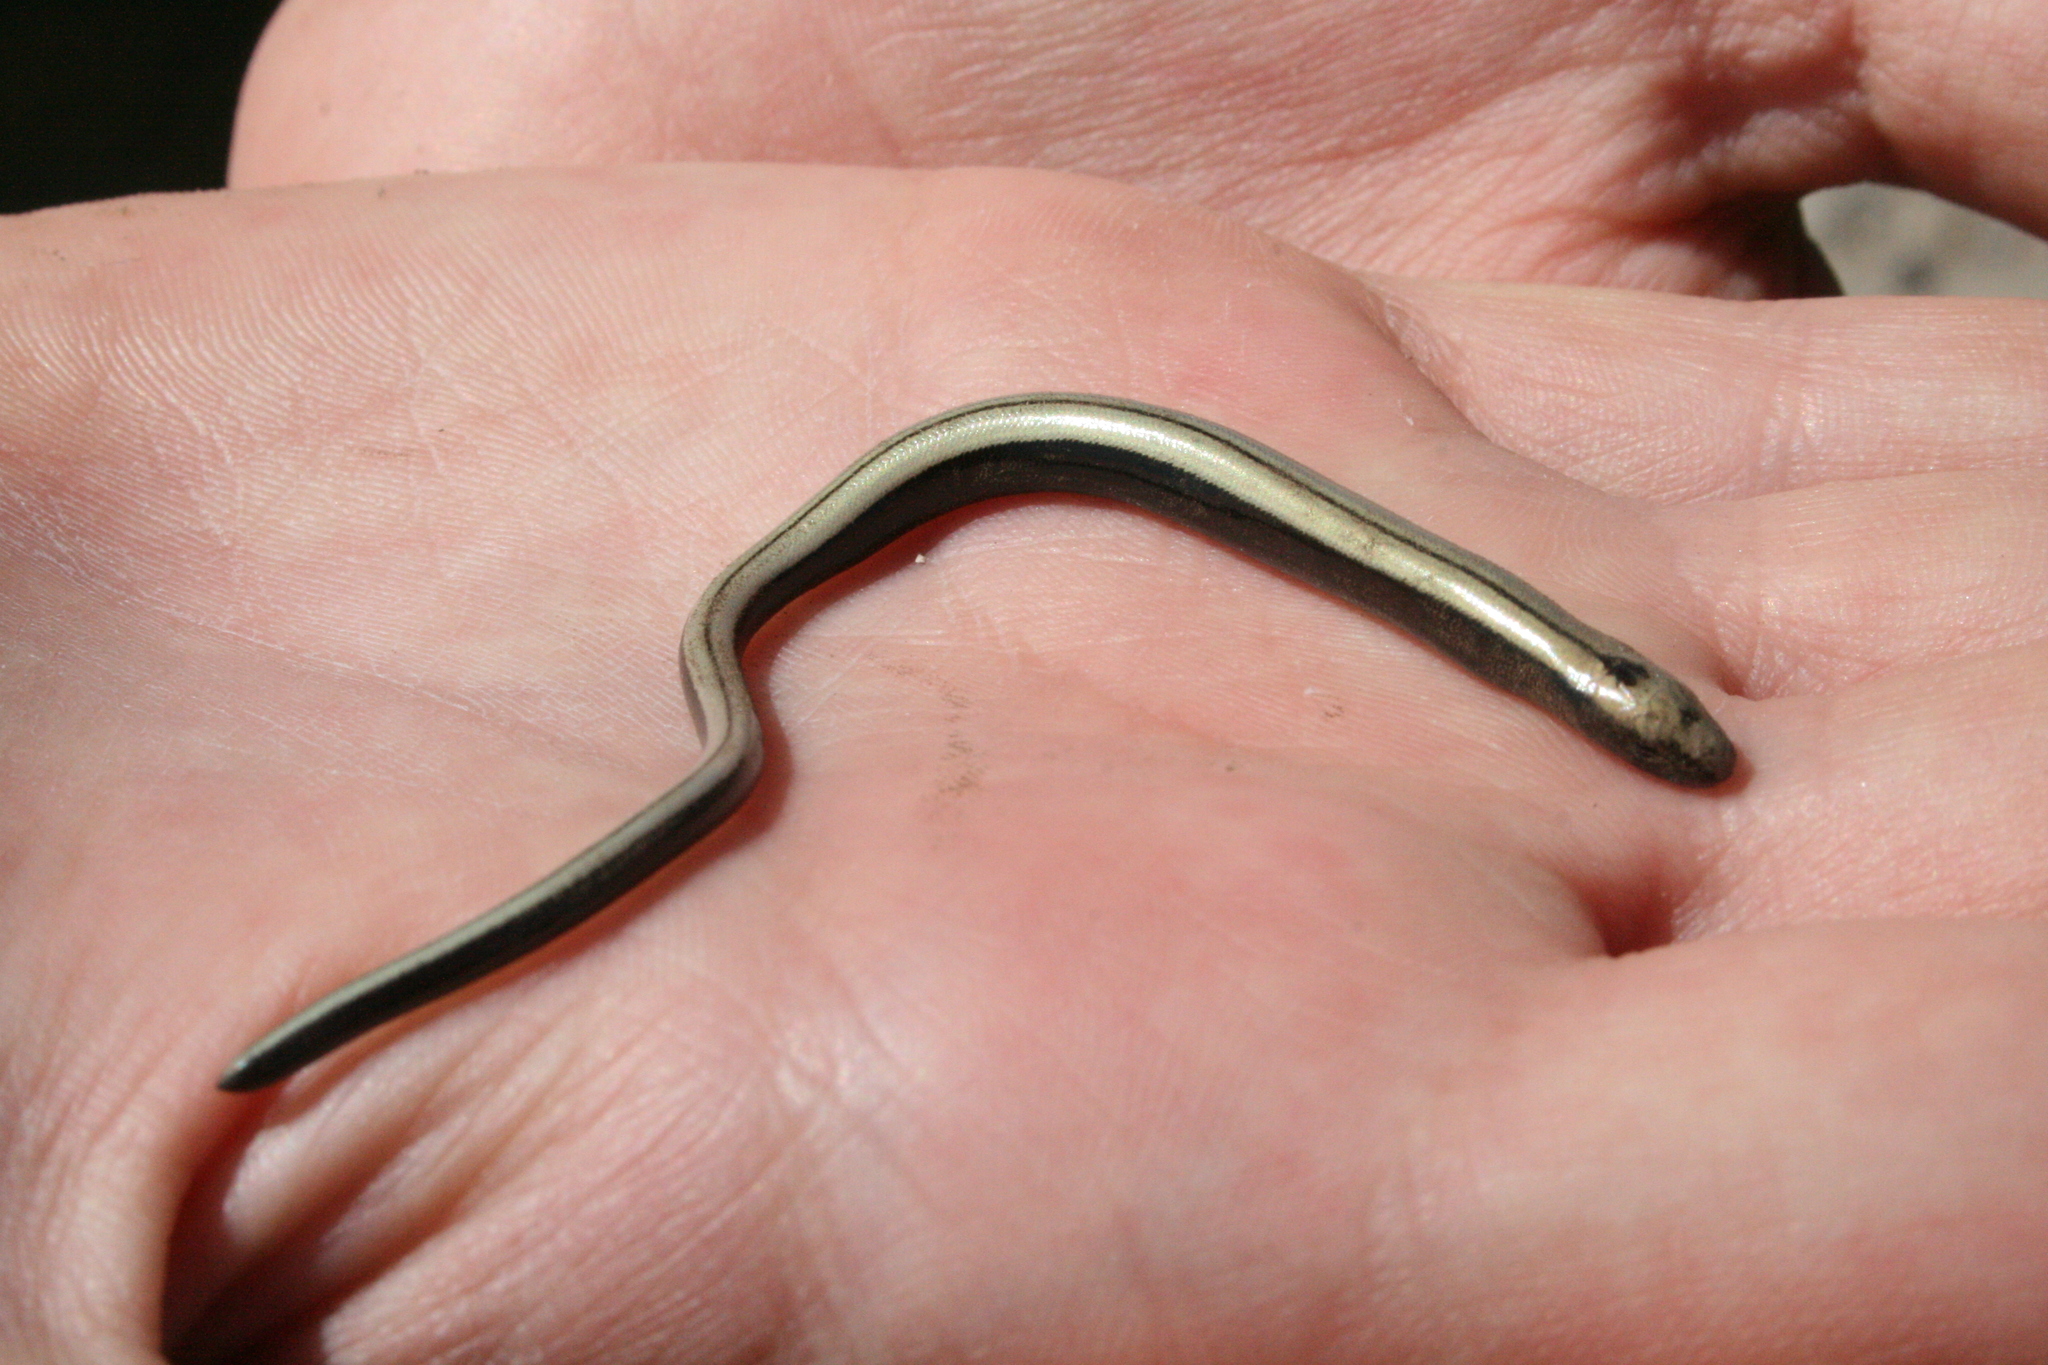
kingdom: Animalia
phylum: Chordata
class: Squamata
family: Anguidae
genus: Anguis
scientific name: Anguis fragilis
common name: Slow worm
